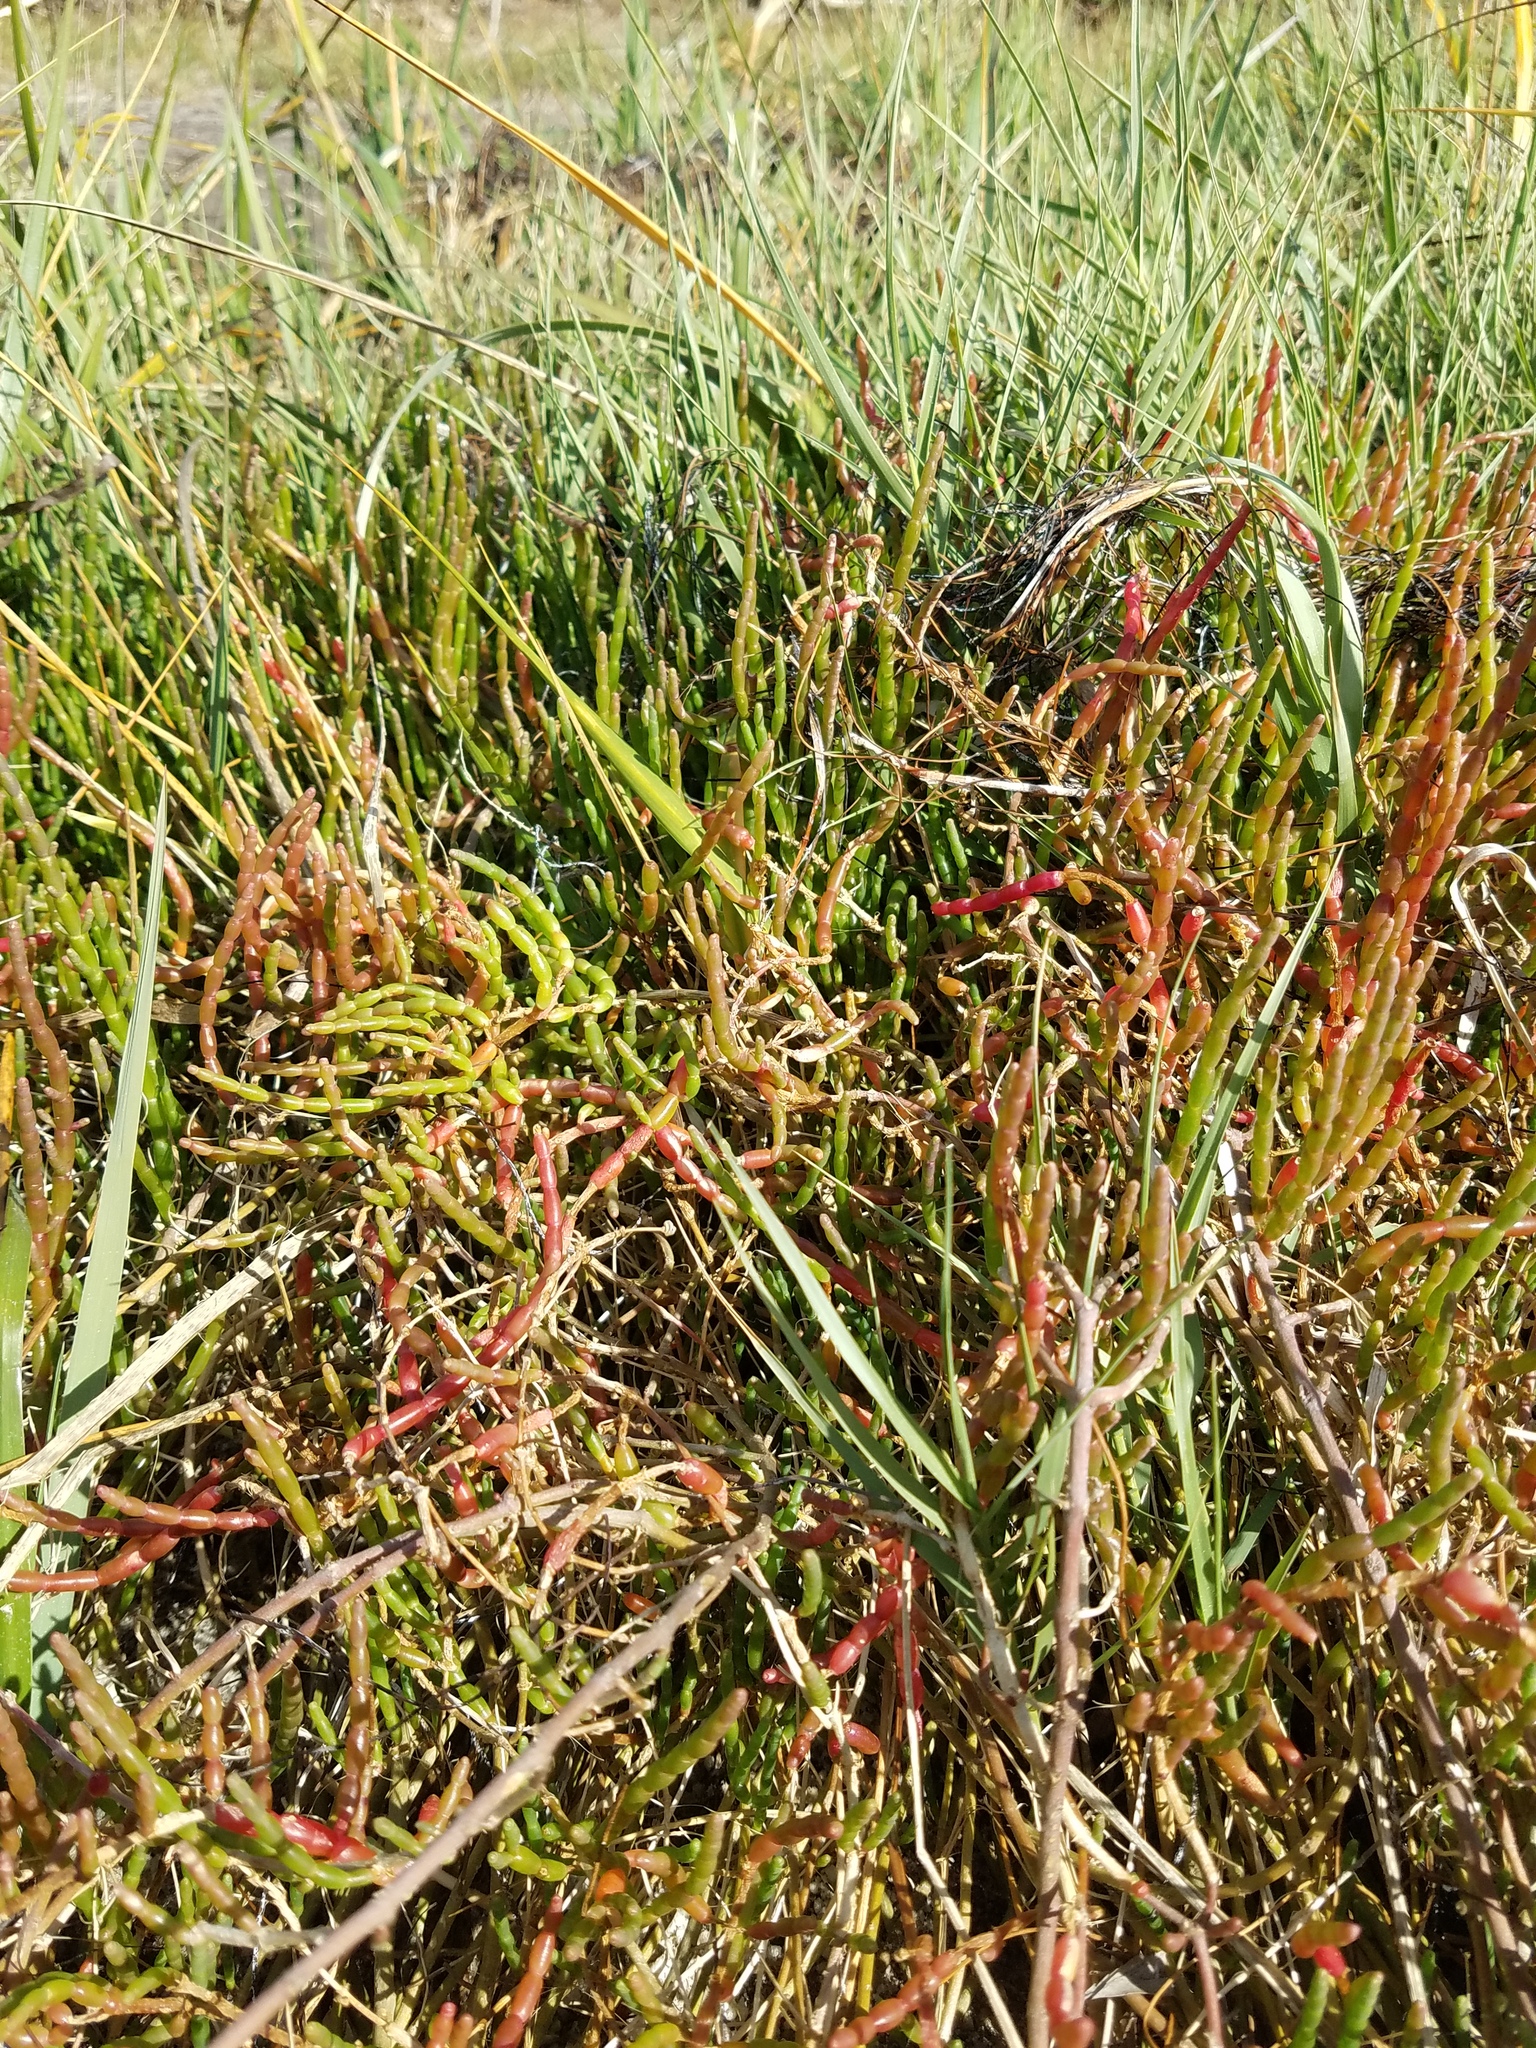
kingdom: Plantae
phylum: Tracheophyta
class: Magnoliopsida
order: Caryophyllales
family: Amaranthaceae
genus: Salicornia
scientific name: Salicornia ambigua
